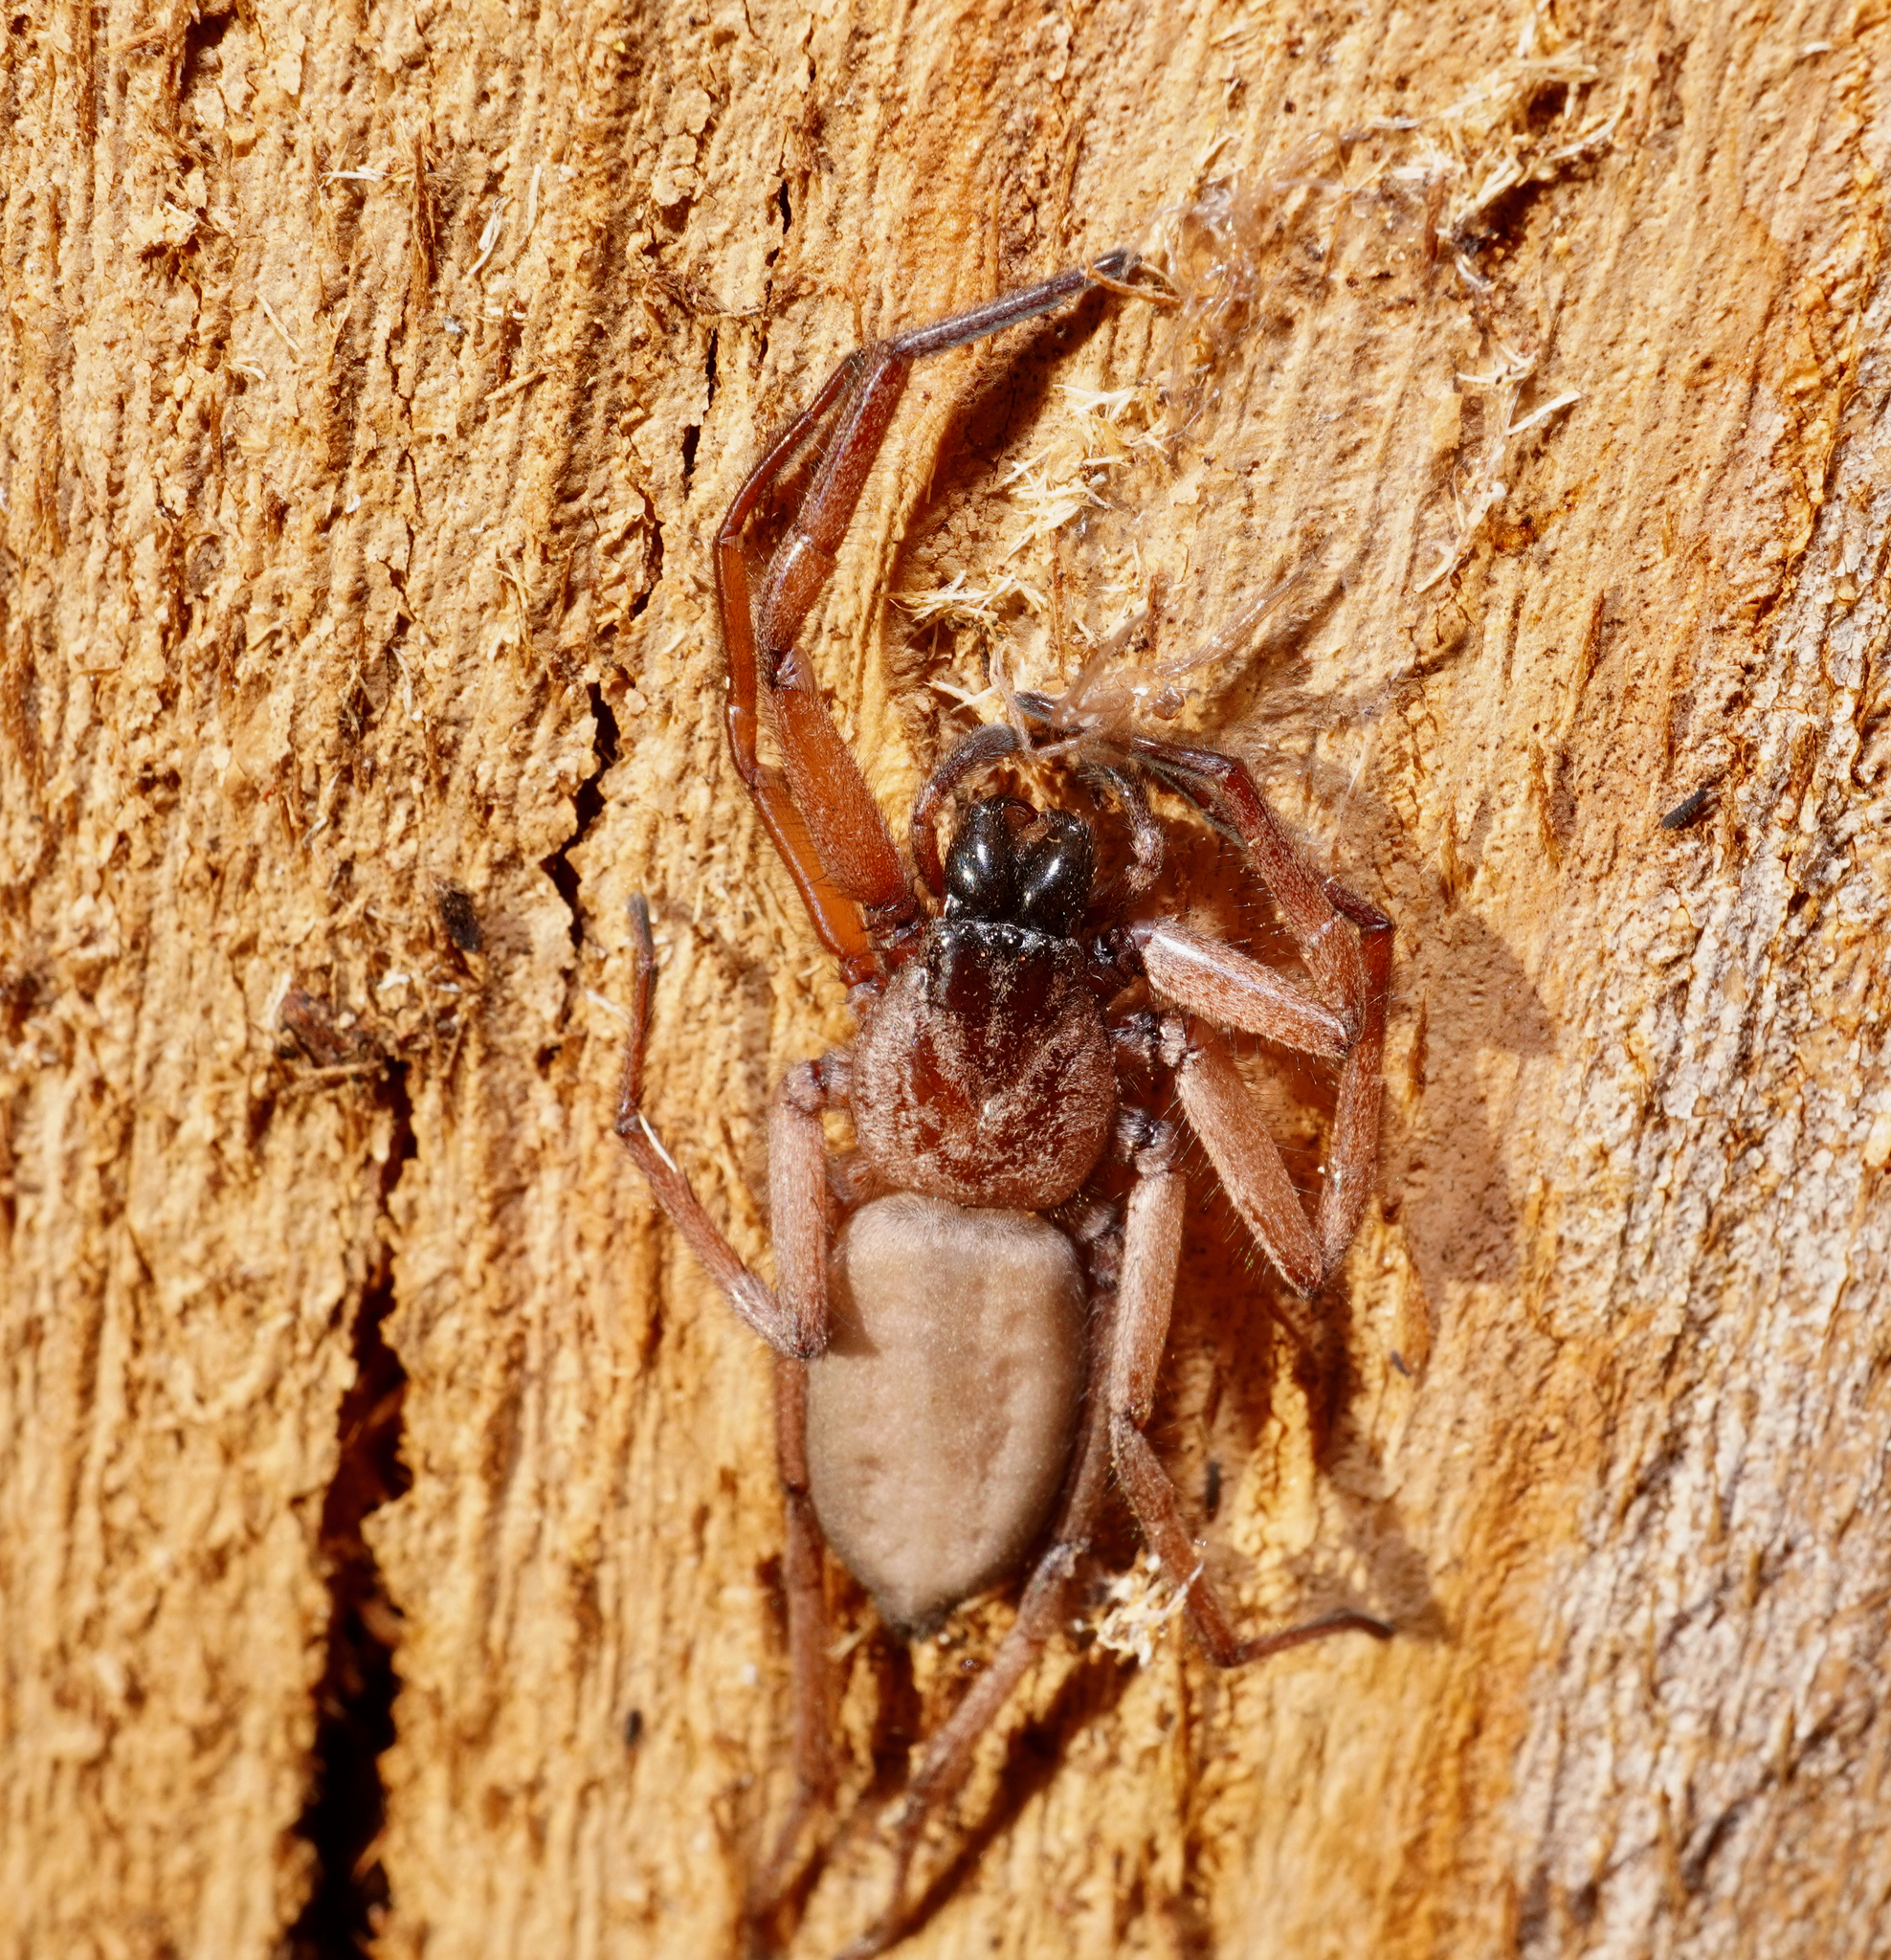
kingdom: Animalia
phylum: Arthropoda
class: Arachnida
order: Araneae
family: Trochanteriidae
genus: Hemicloea
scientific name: Hemicloea rogenhoferi
